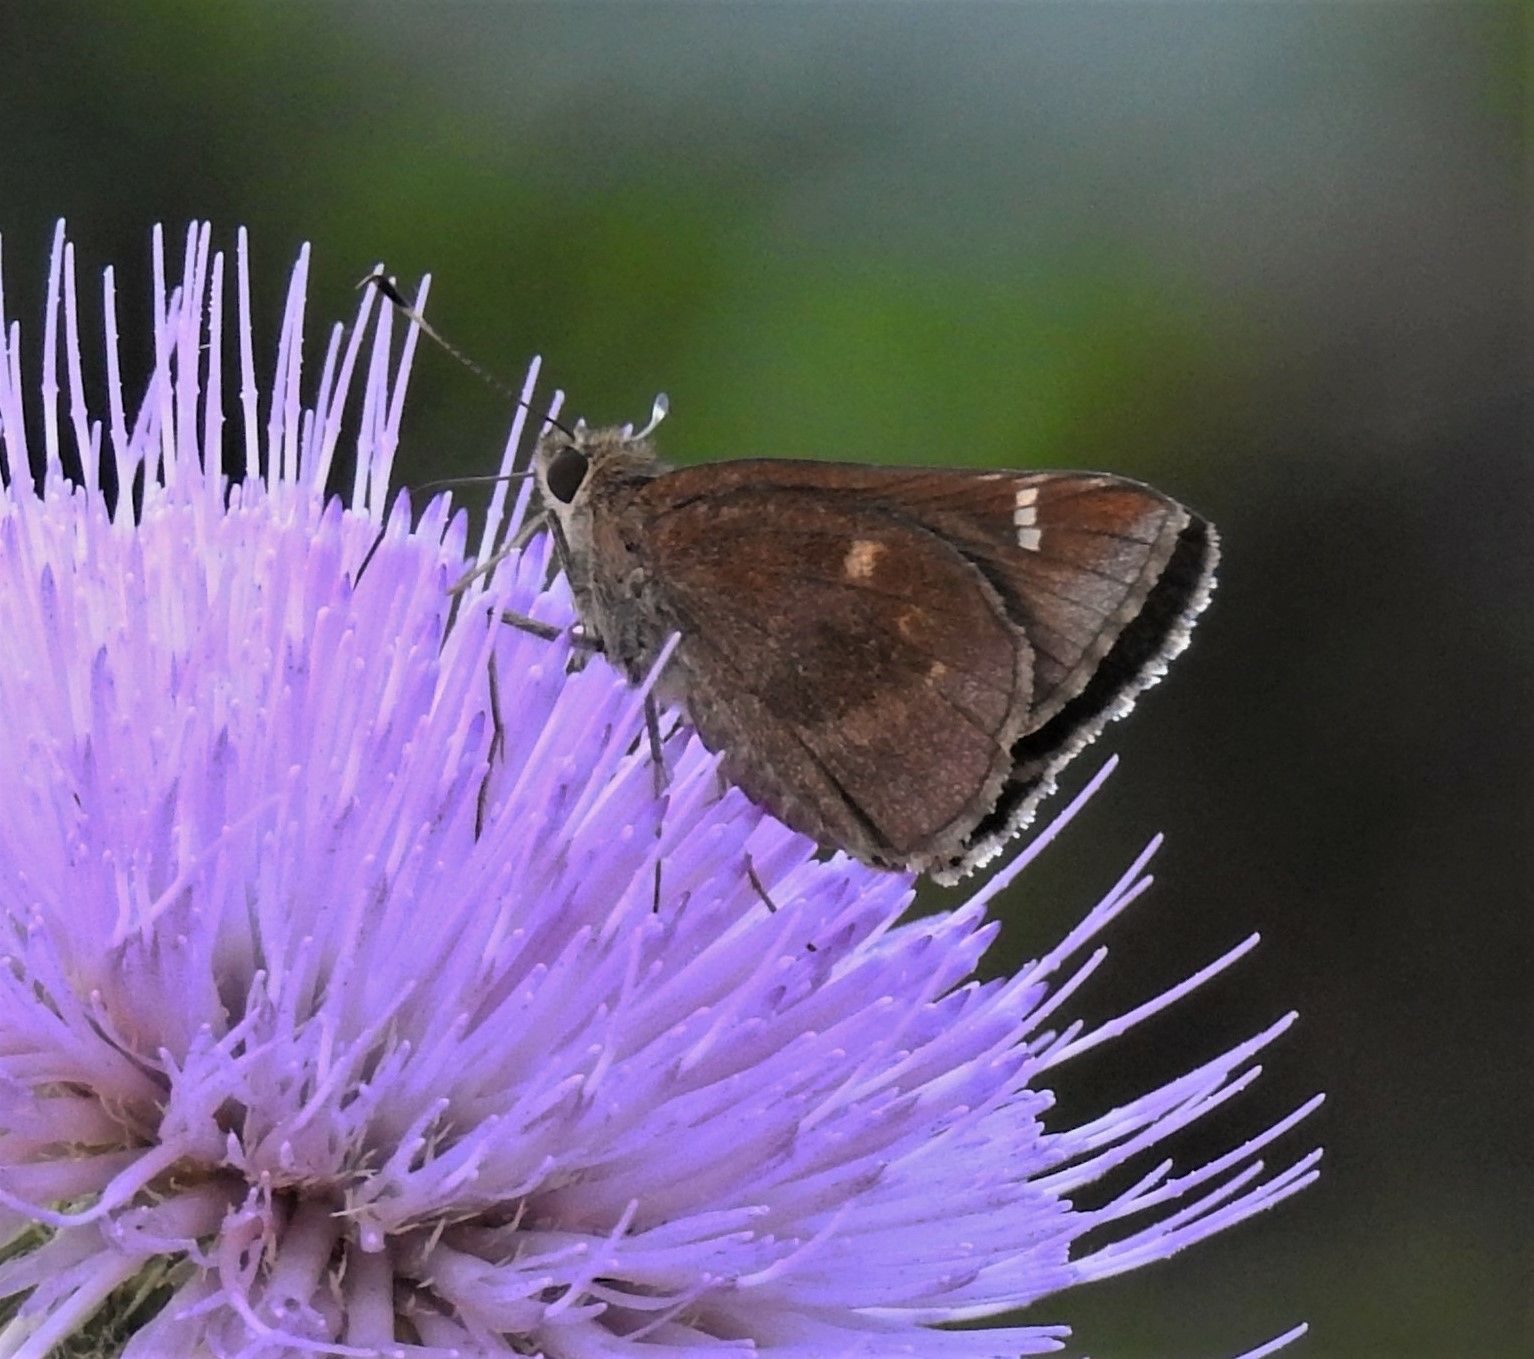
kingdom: Animalia
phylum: Arthropoda
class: Insecta
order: Lepidoptera
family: Hesperiidae
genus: Lerema
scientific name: Lerema accius
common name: Clouded skipper
